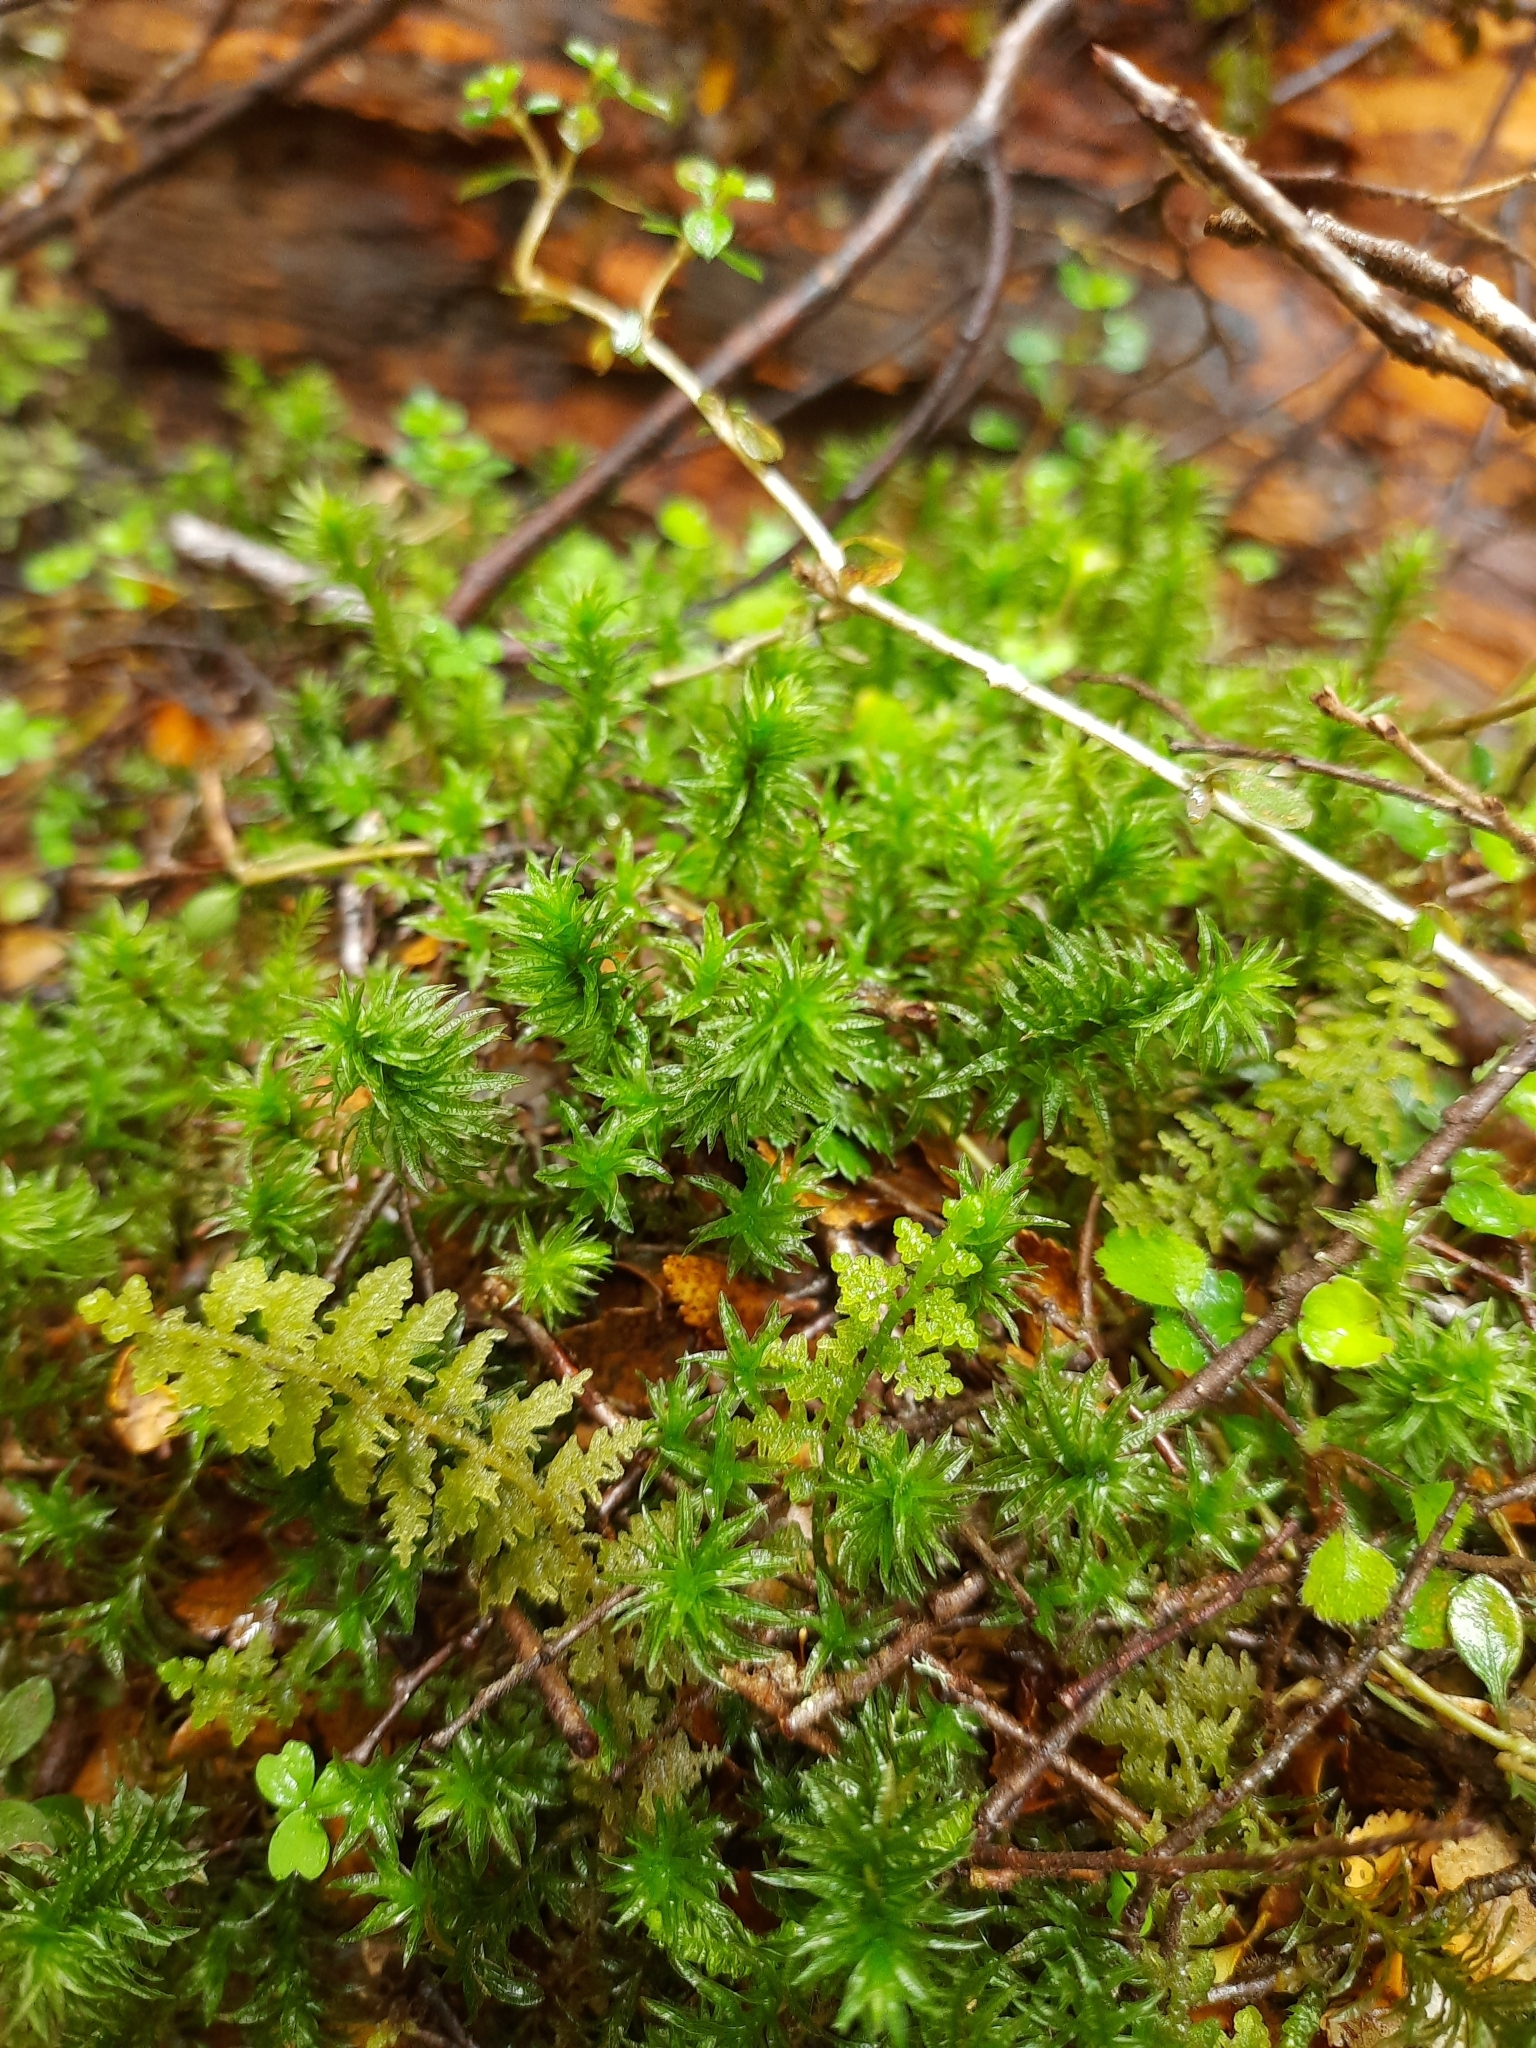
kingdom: Plantae
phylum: Bryophyta
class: Polytrichopsida
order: Polytrichales
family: Polytrichaceae
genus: Atrichum
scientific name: Atrichum androgynum
